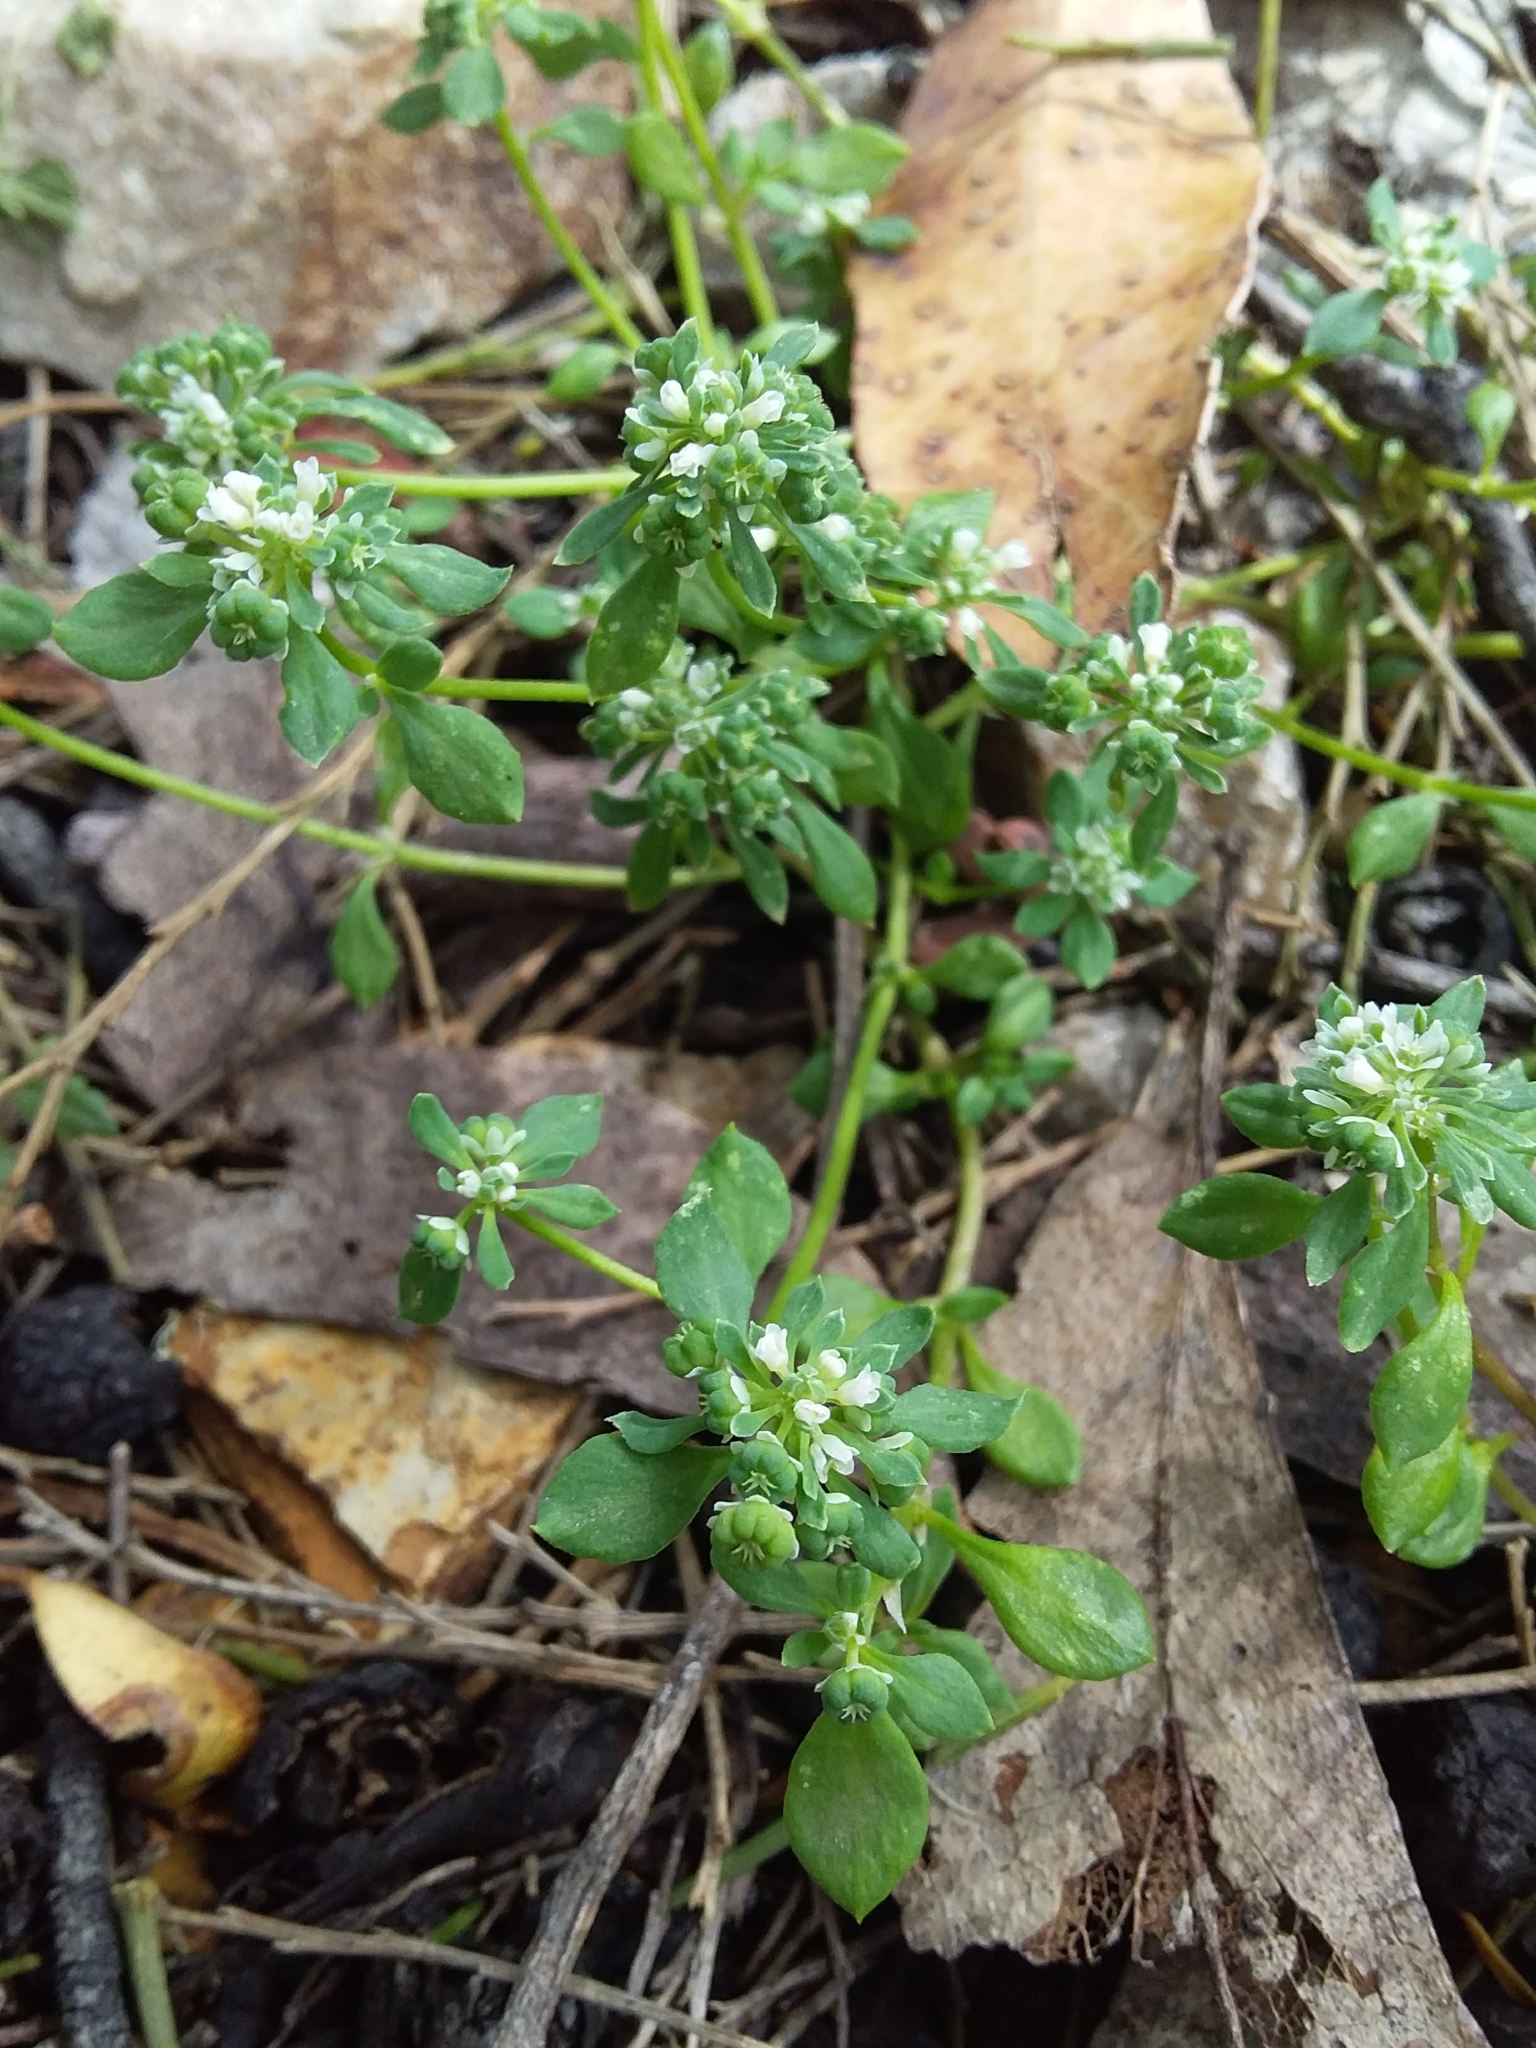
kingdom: Plantae
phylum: Tracheophyta
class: Magnoliopsida
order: Malpighiales
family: Phyllanthaceae
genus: Poranthera
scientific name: Poranthera microphylla
